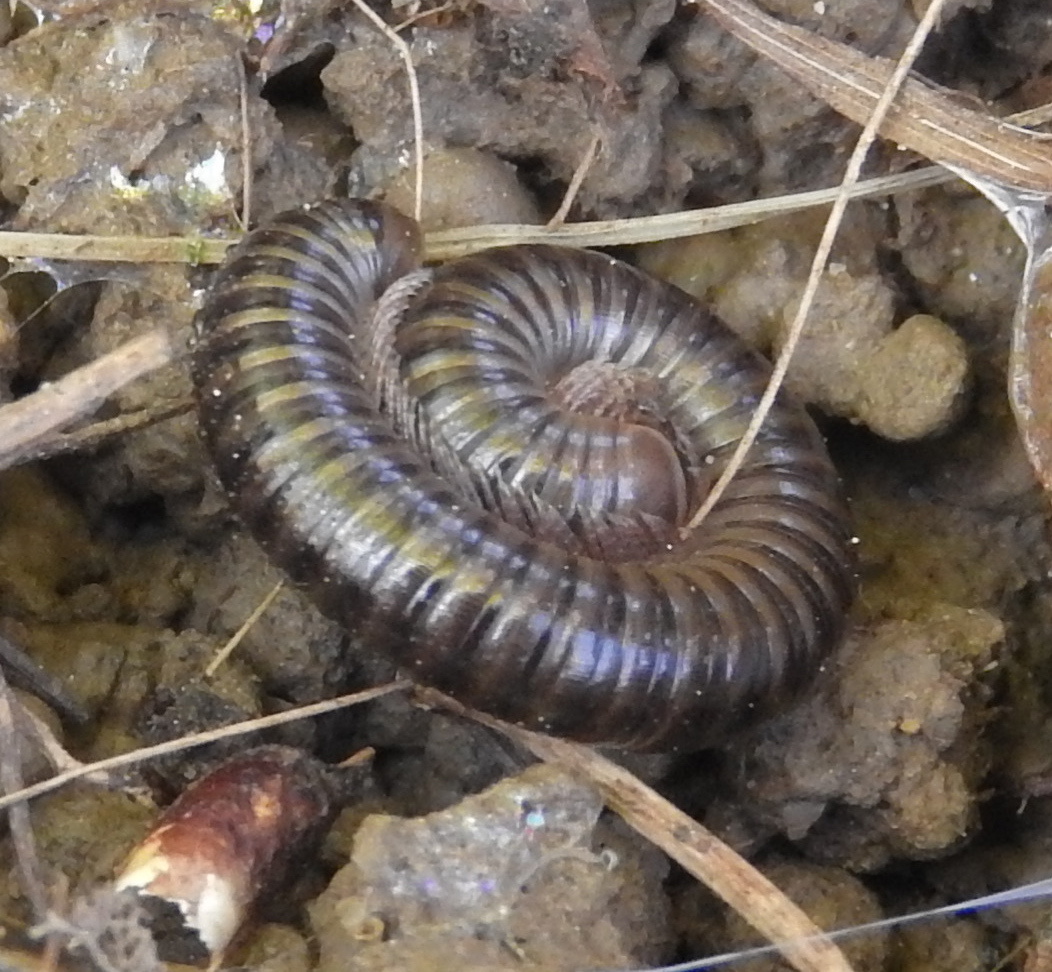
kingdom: Animalia
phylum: Arthropoda
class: Diplopoda
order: Julida
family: Julidae
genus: Cylindroiulus
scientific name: Cylindroiulus caeruleocinctus
